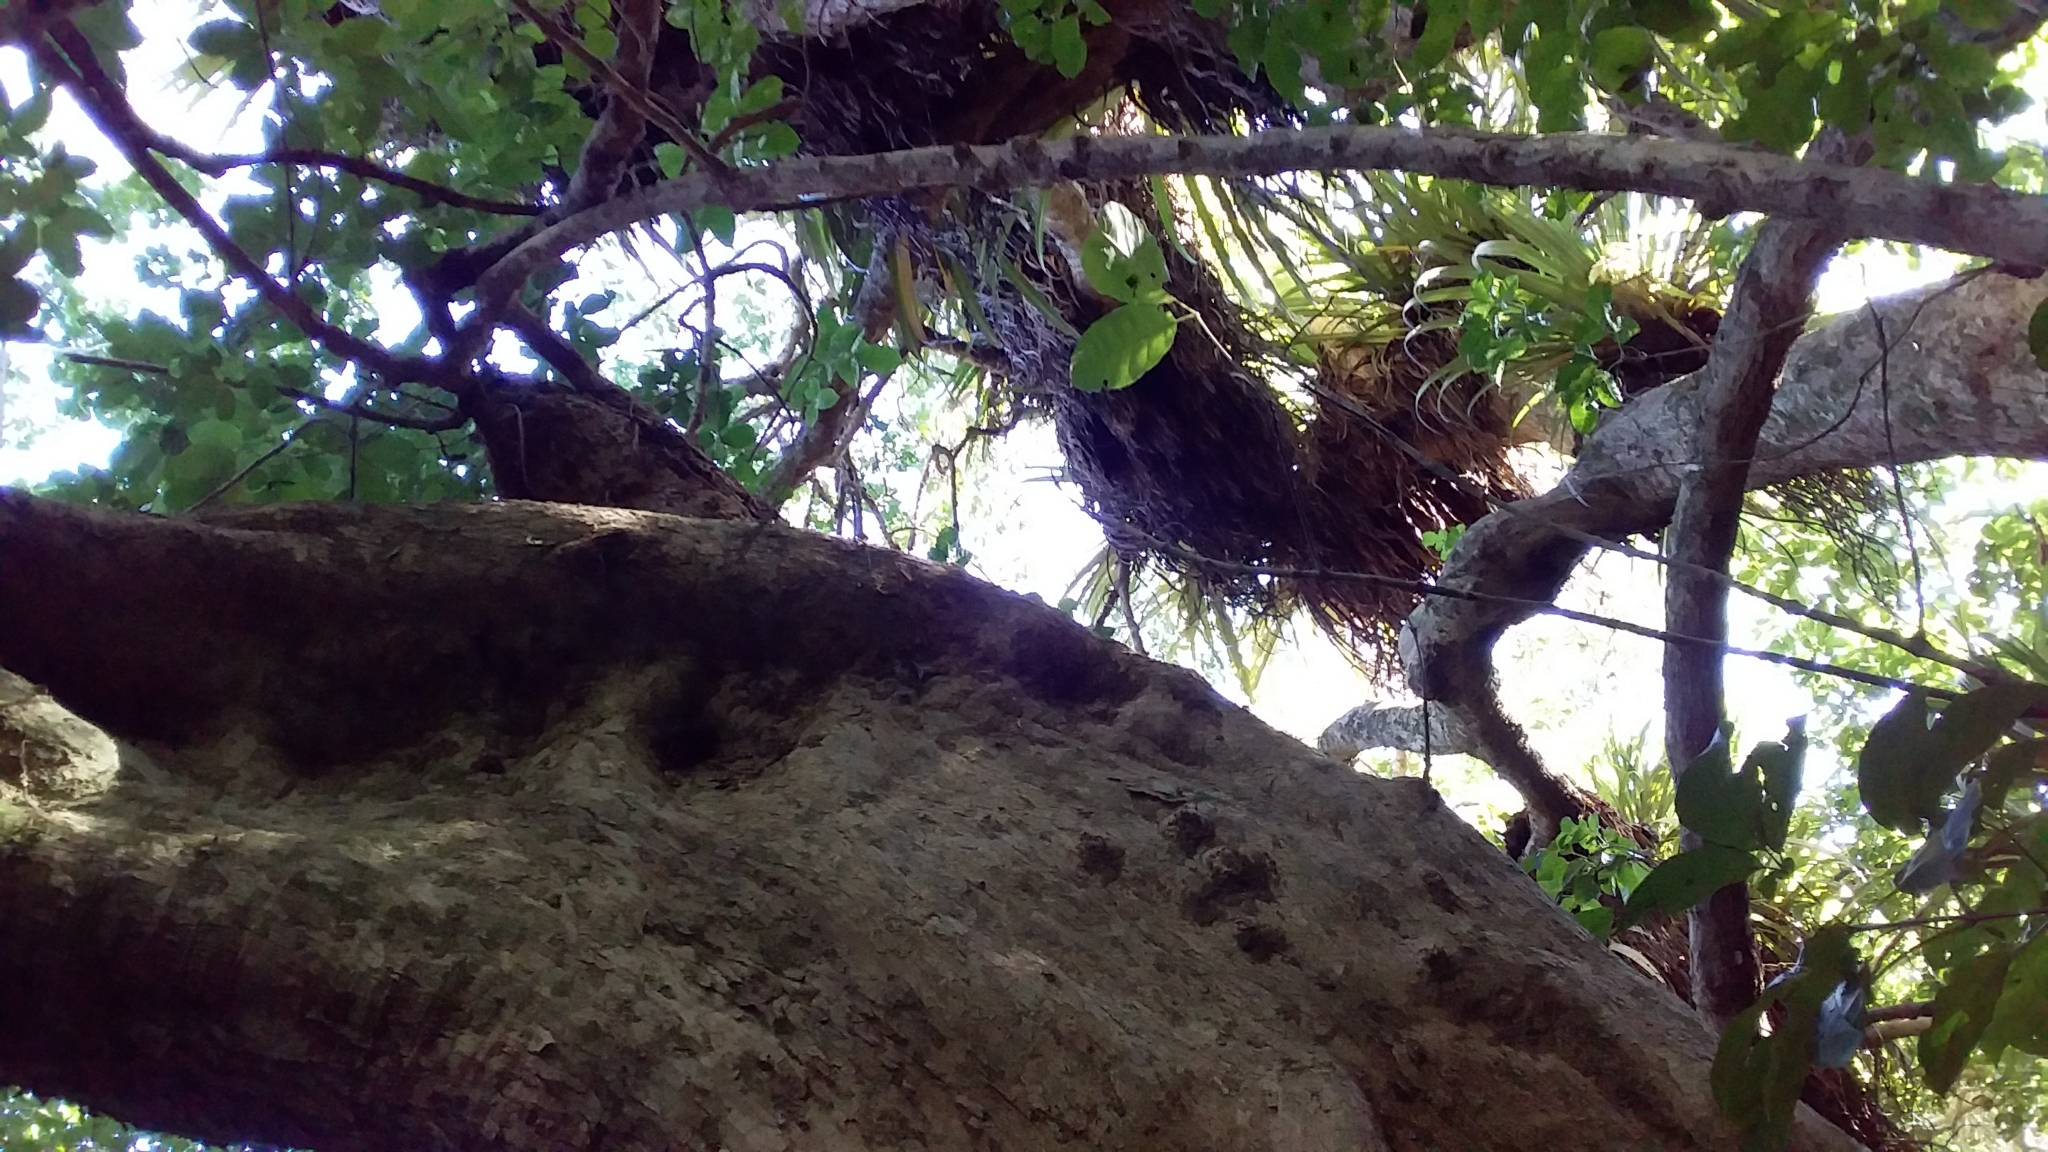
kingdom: Plantae
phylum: Tracheophyta
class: Magnoliopsida
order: Lamiales
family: Lamiaceae
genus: Vitex
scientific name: Vitex lucens
